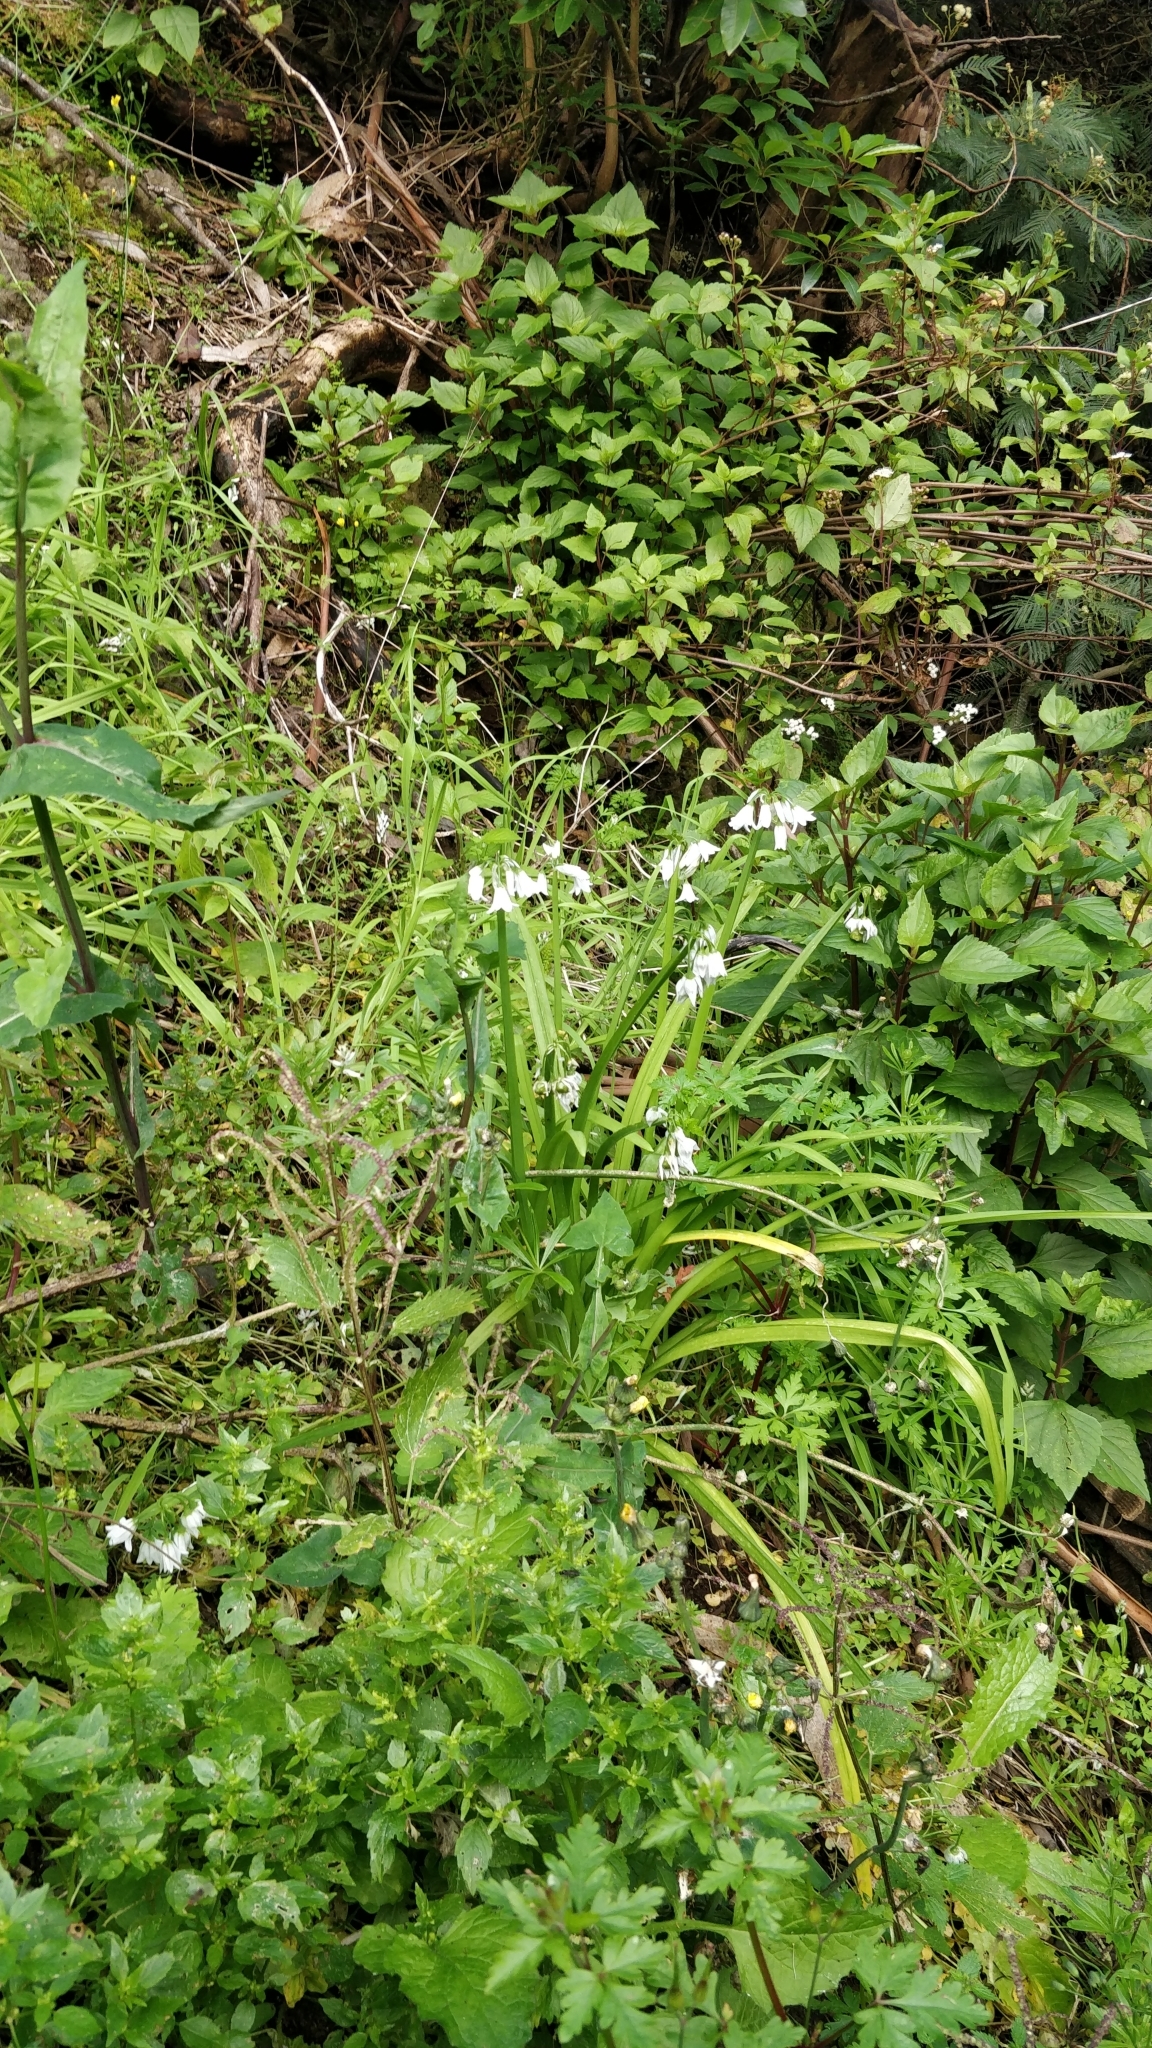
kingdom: Plantae
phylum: Tracheophyta
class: Liliopsida
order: Asparagales
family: Amaryllidaceae
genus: Allium
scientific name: Allium triquetrum
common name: Three-cornered garlic
